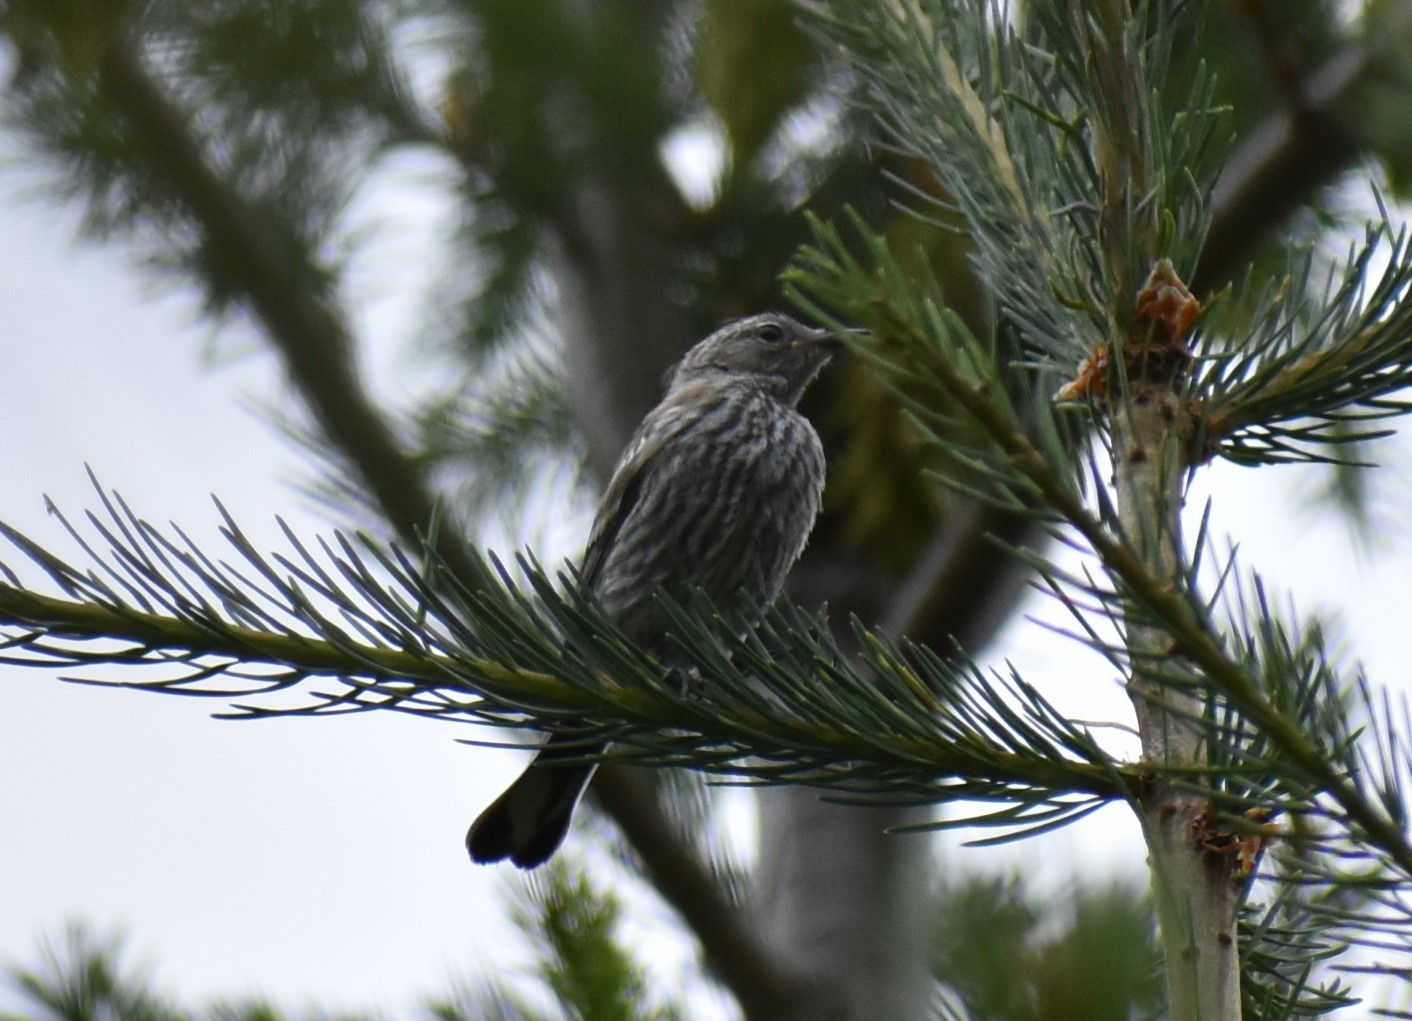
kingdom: Animalia
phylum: Chordata
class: Aves
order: Passeriformes
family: Fringillidae
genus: Spinus
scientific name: Spinus pinus
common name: Pine siskin
